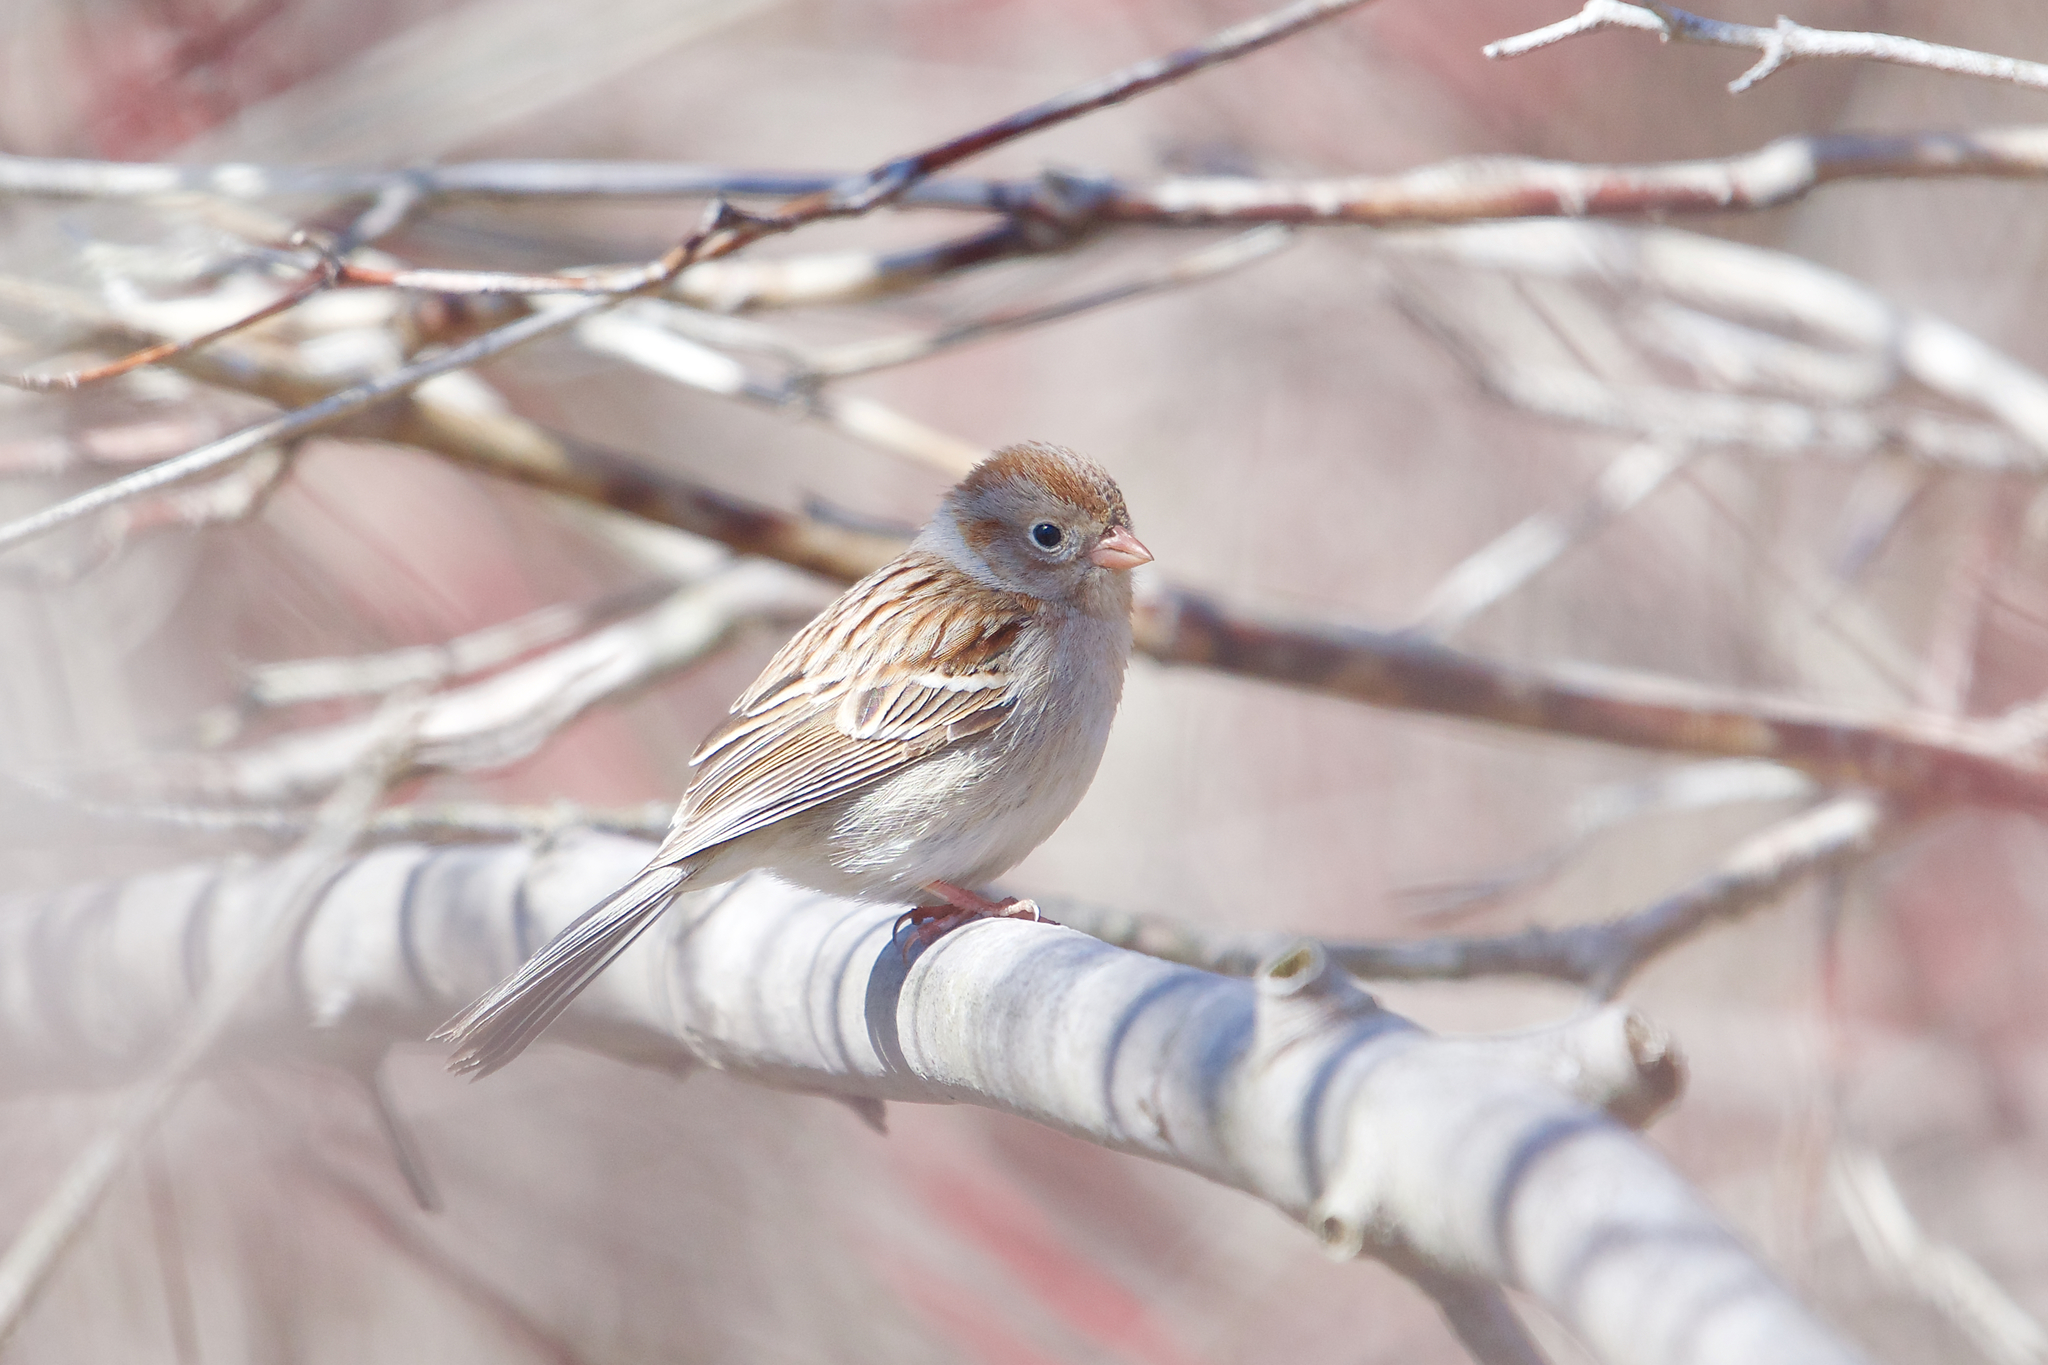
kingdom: Animalia
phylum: Chordata
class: Aves
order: Passeriformes
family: Passerellidae
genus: Spizella
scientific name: Spizella pusilla
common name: Field sparrow
